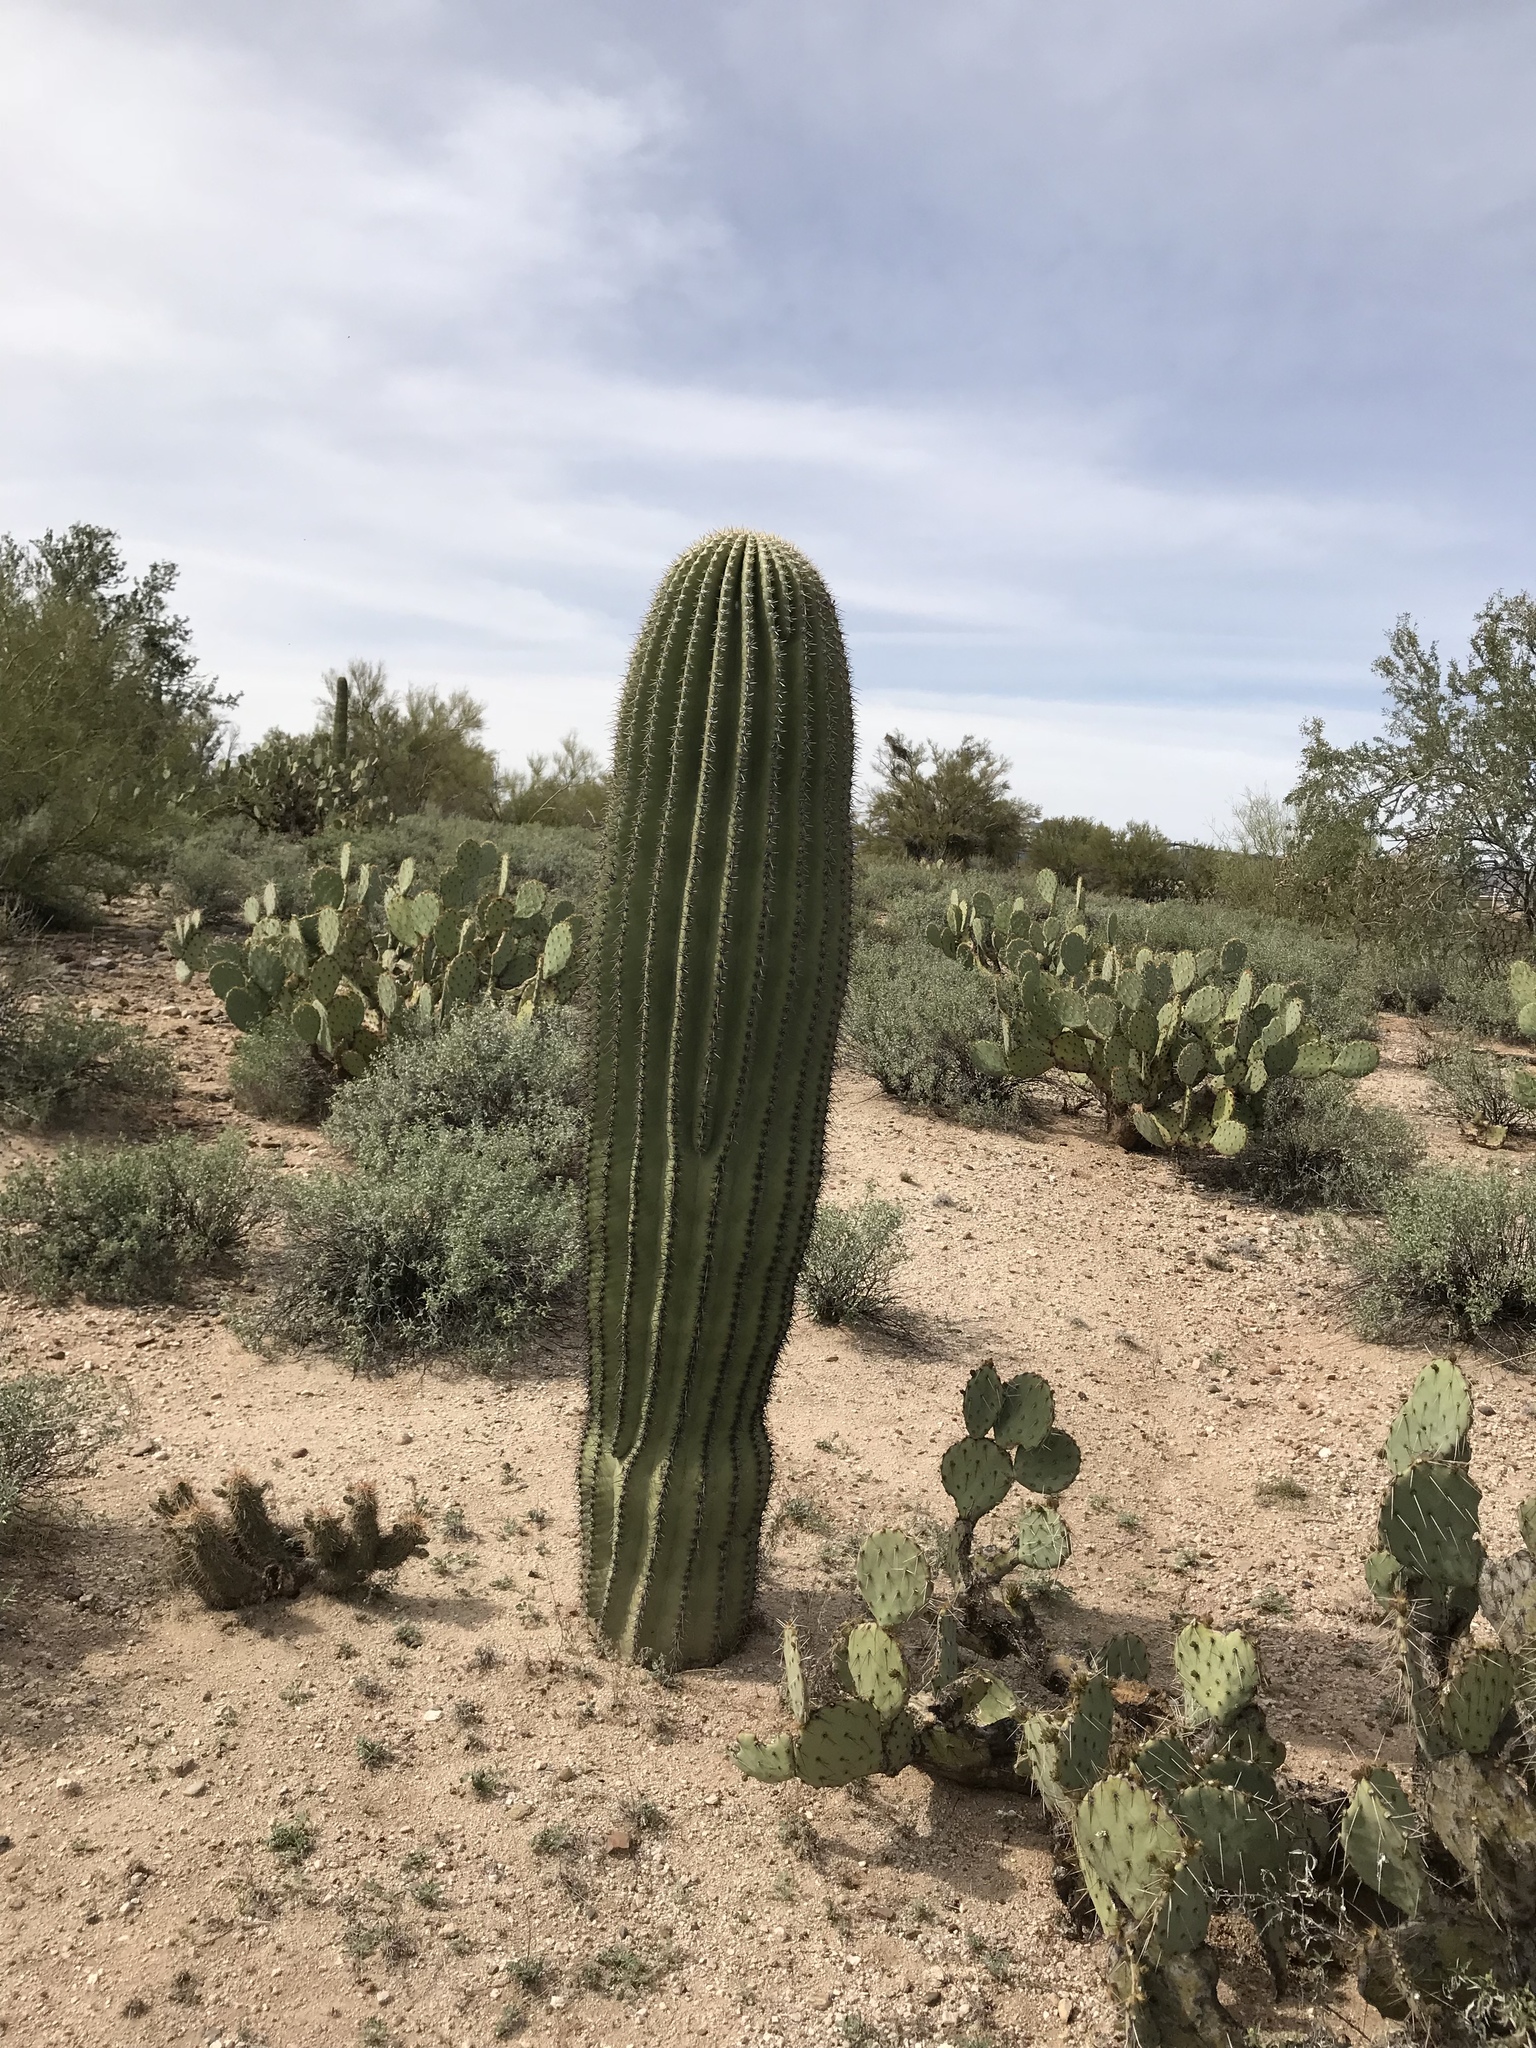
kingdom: Plantae
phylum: Tracheophyta
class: Magnoliopsida
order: Caryophyllales
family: Cactaceae
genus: Carnegiea
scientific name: Carnegiea gigantea
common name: Saguaro
